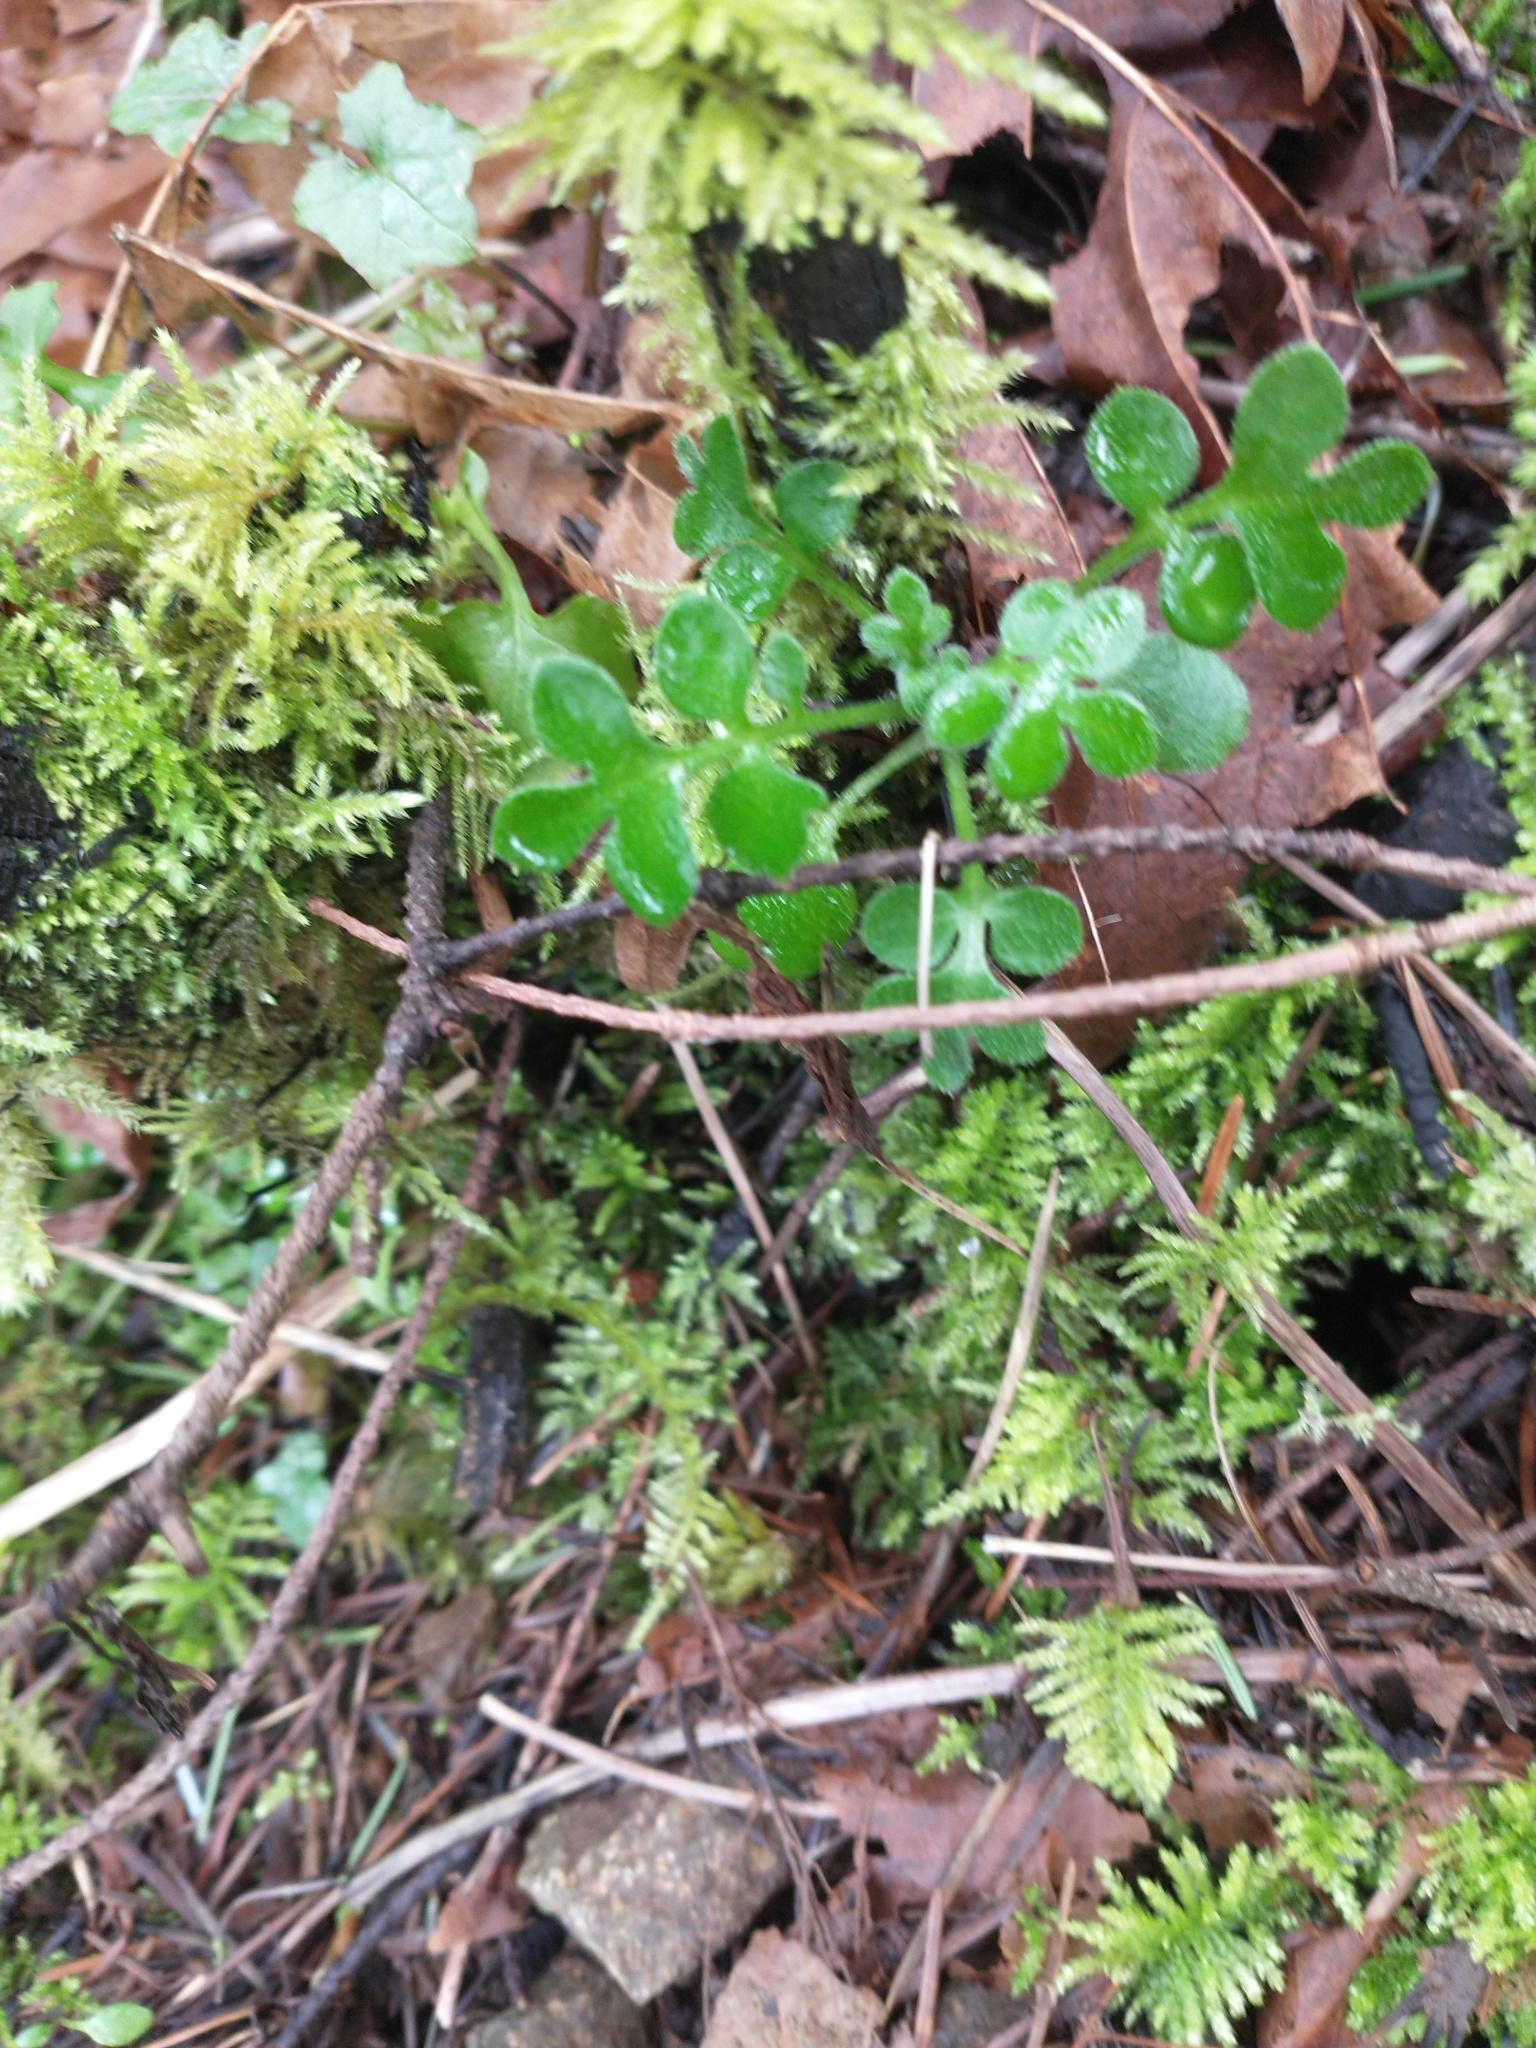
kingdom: Plantae
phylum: Tracheophyta
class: Magnoliopsida
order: Boraginales
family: Hydrophyllaceae
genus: Nemophila
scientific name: Nemophila parviflora
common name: Small-flowered baby-blue-eyes
